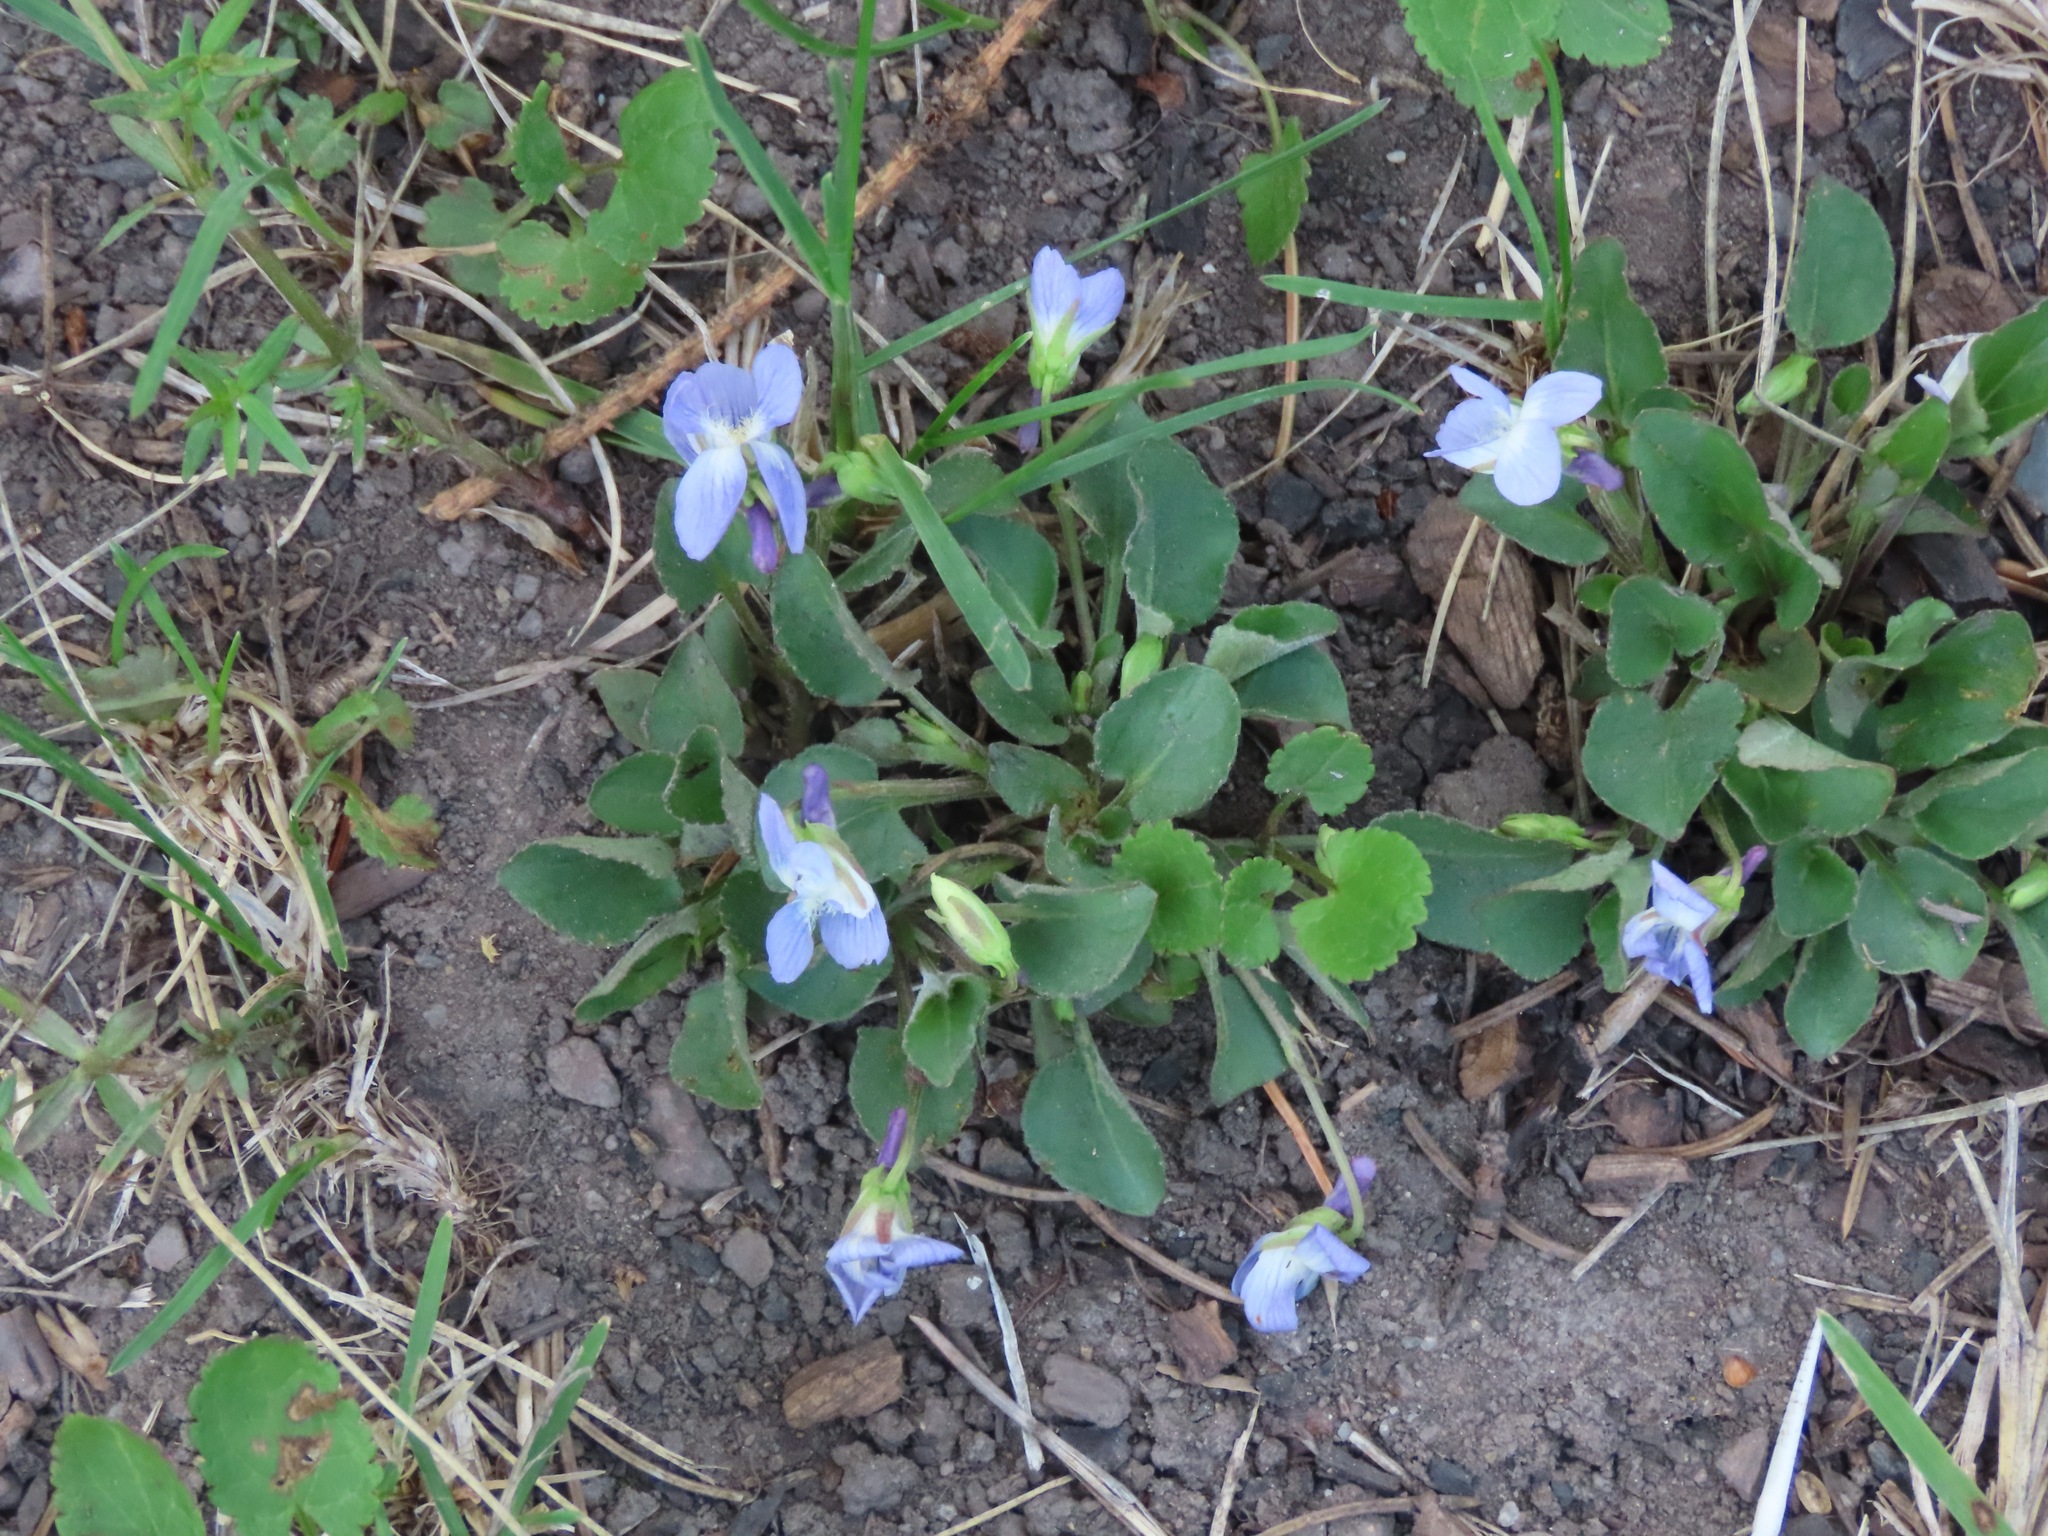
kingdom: Plantae
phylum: Tracheophyta
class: Magnoliopsida
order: Malpighiales
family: Violaceae
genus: Viola
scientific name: Viola adunca
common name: Sand violet
